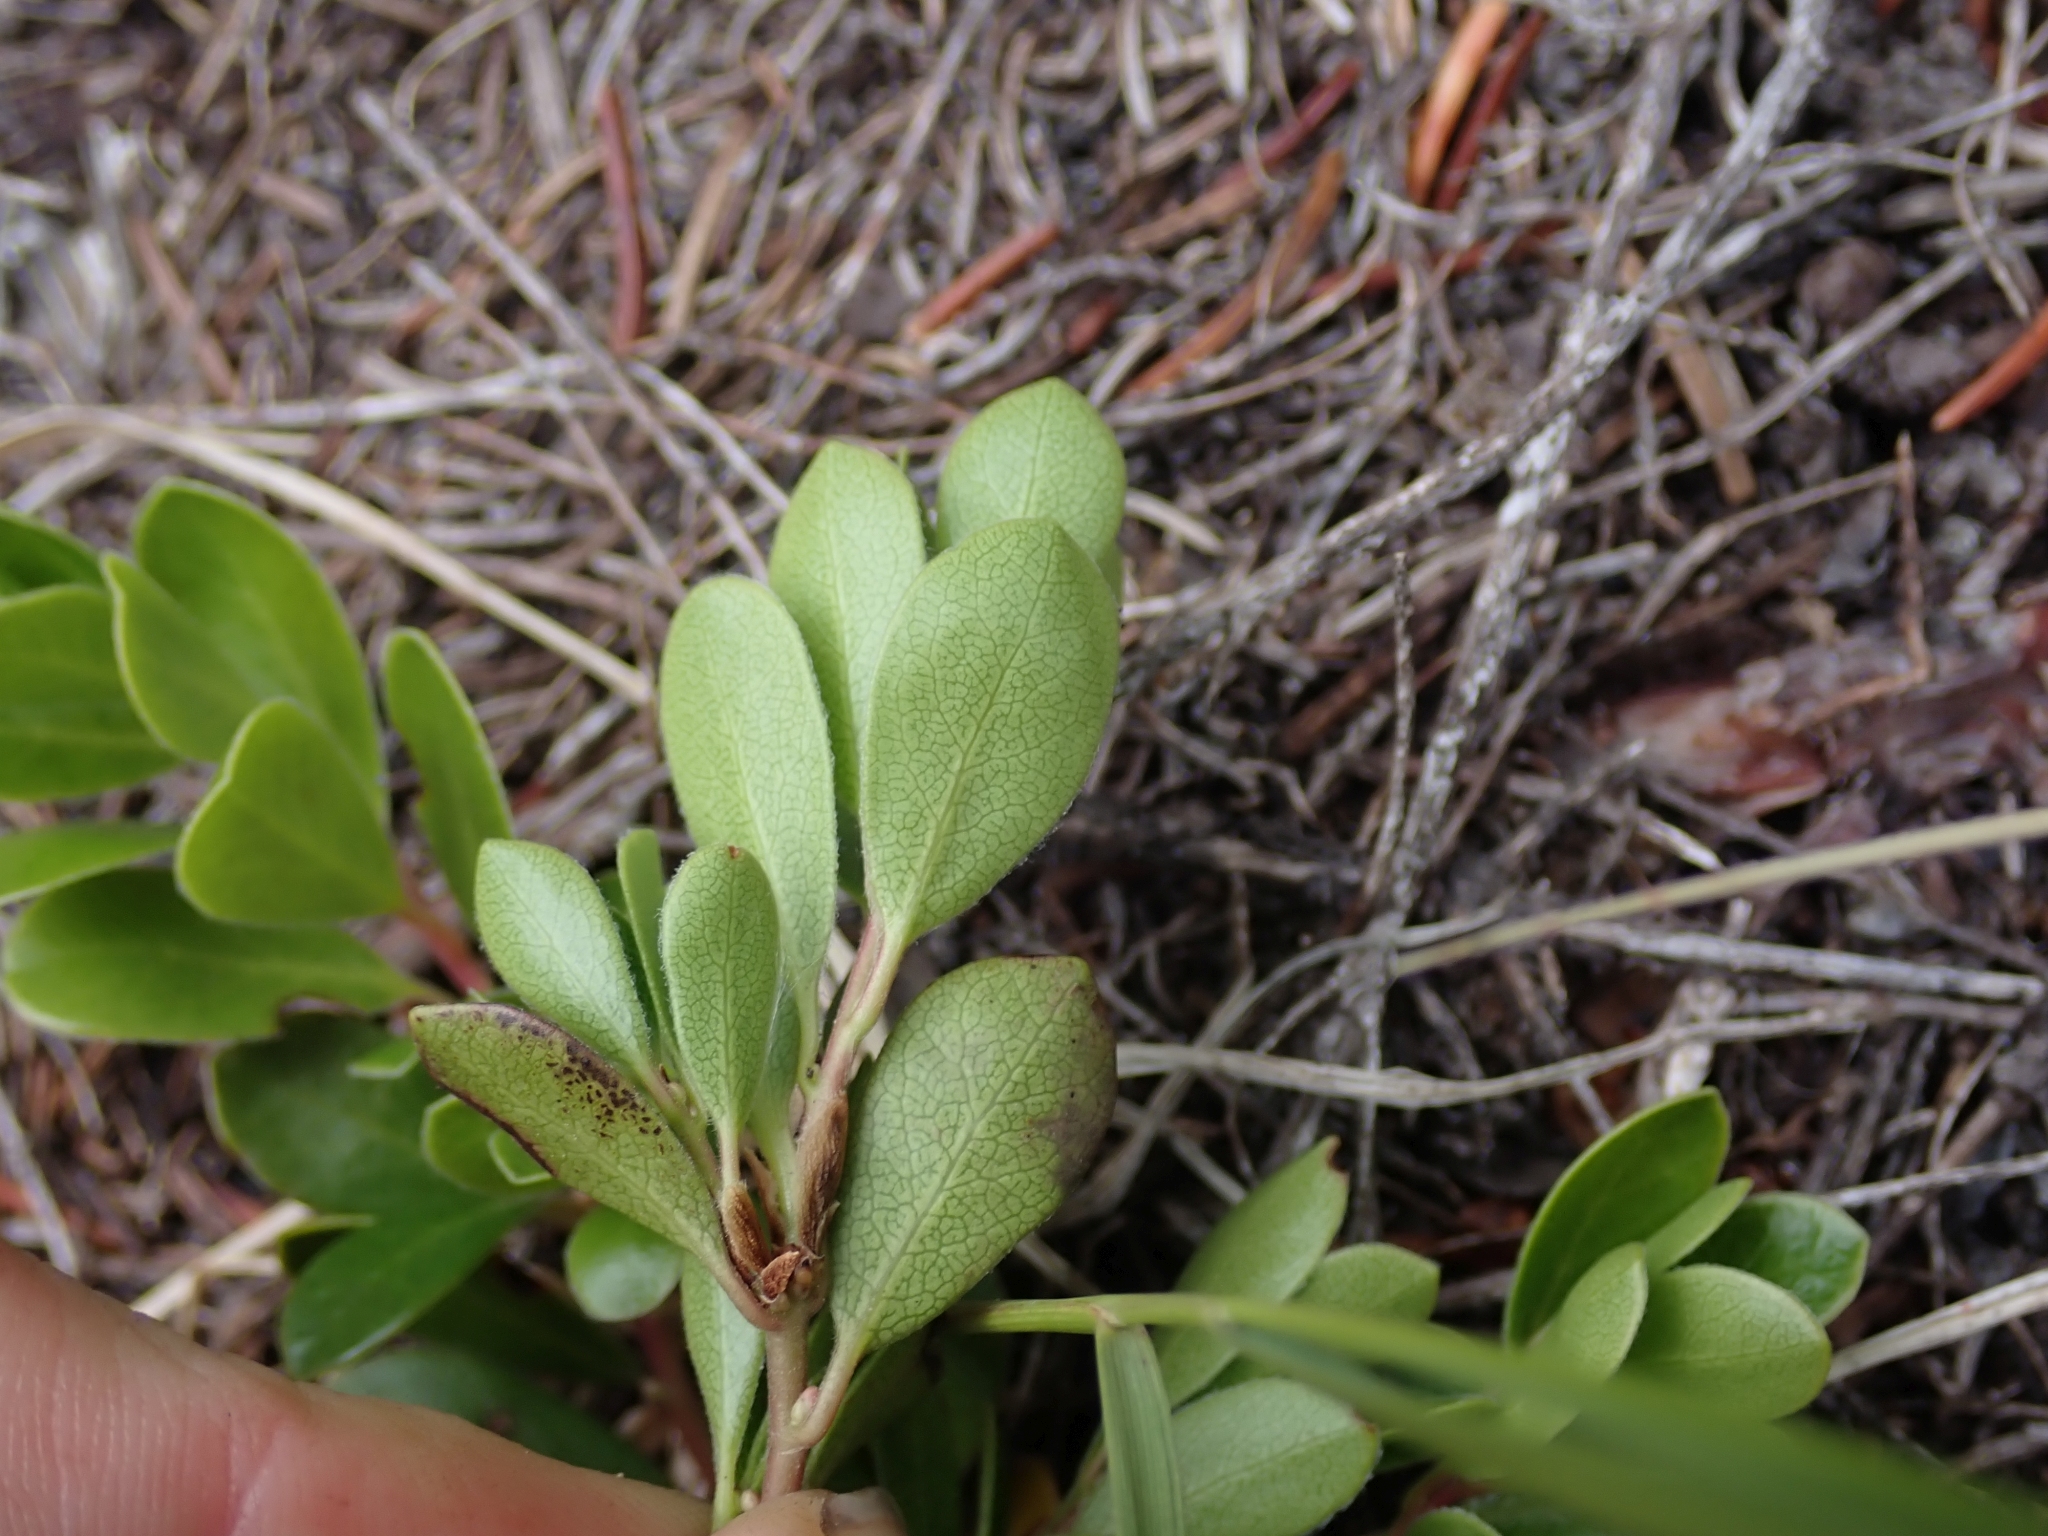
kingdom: Plantae
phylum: Tracheophyta
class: Magnoliopsida
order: Ericales
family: Ericaceae
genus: Arctostaphylos
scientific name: Arctostaphylos uva-ursi
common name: Bearberry
